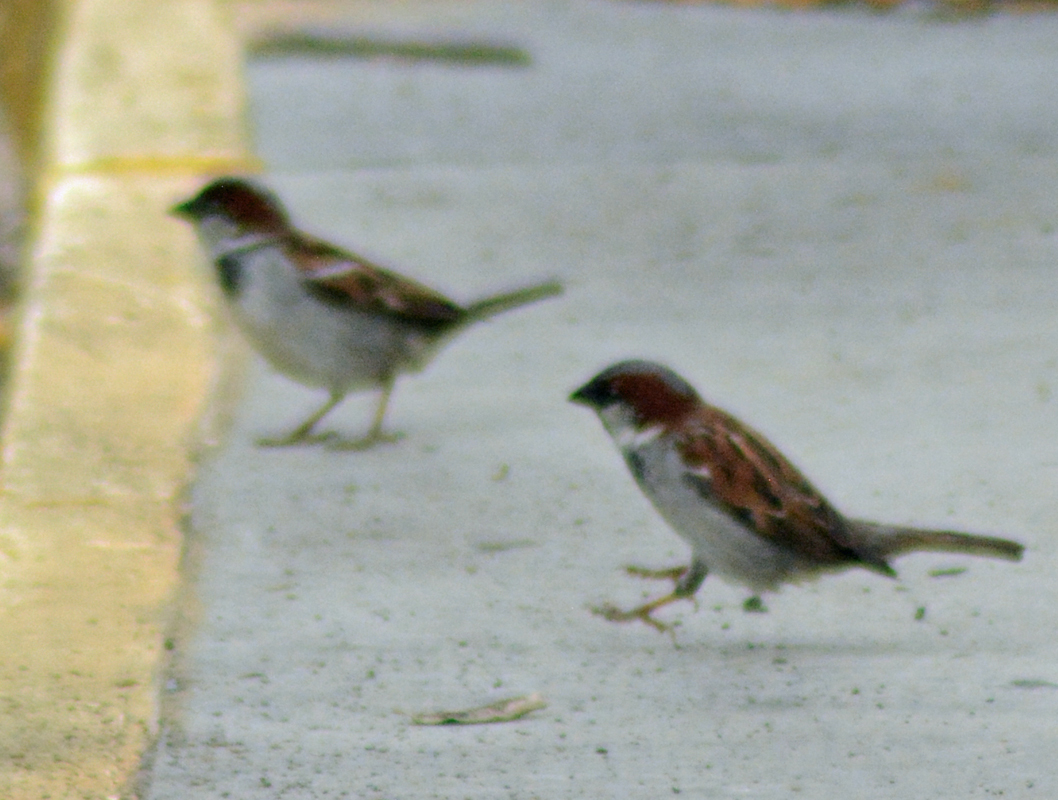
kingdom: Animalia
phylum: Chordata
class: Aves
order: Passeriformes
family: Passeridae
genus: Passer
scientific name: Passer domesticus
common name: House sparrow
